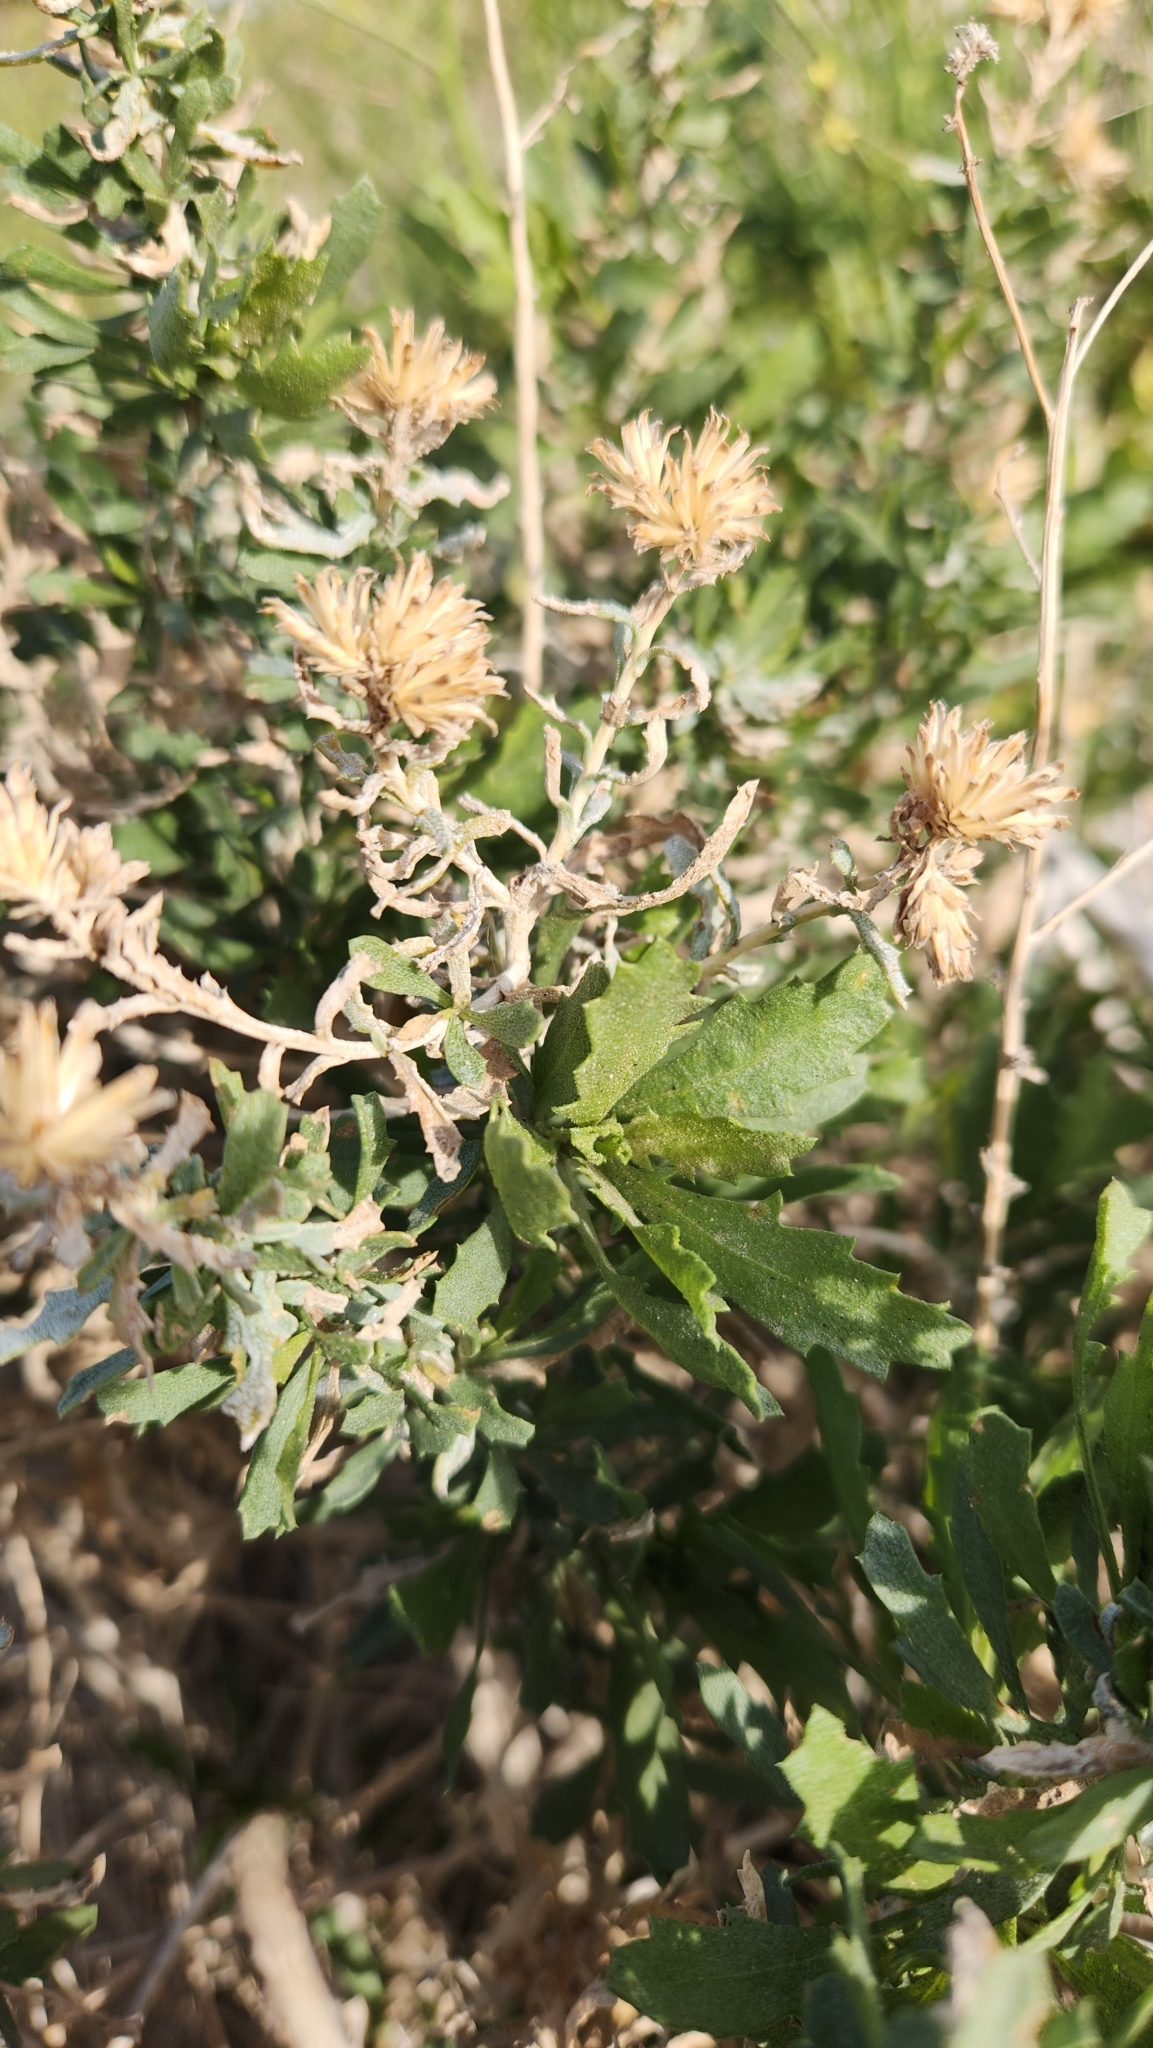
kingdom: Plantae
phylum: Tracheophyta
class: Magnoliopsida
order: Asterales
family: Asteraceae
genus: Isocoma
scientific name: Isocoma acradenia
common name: Alkali jimmyweed
